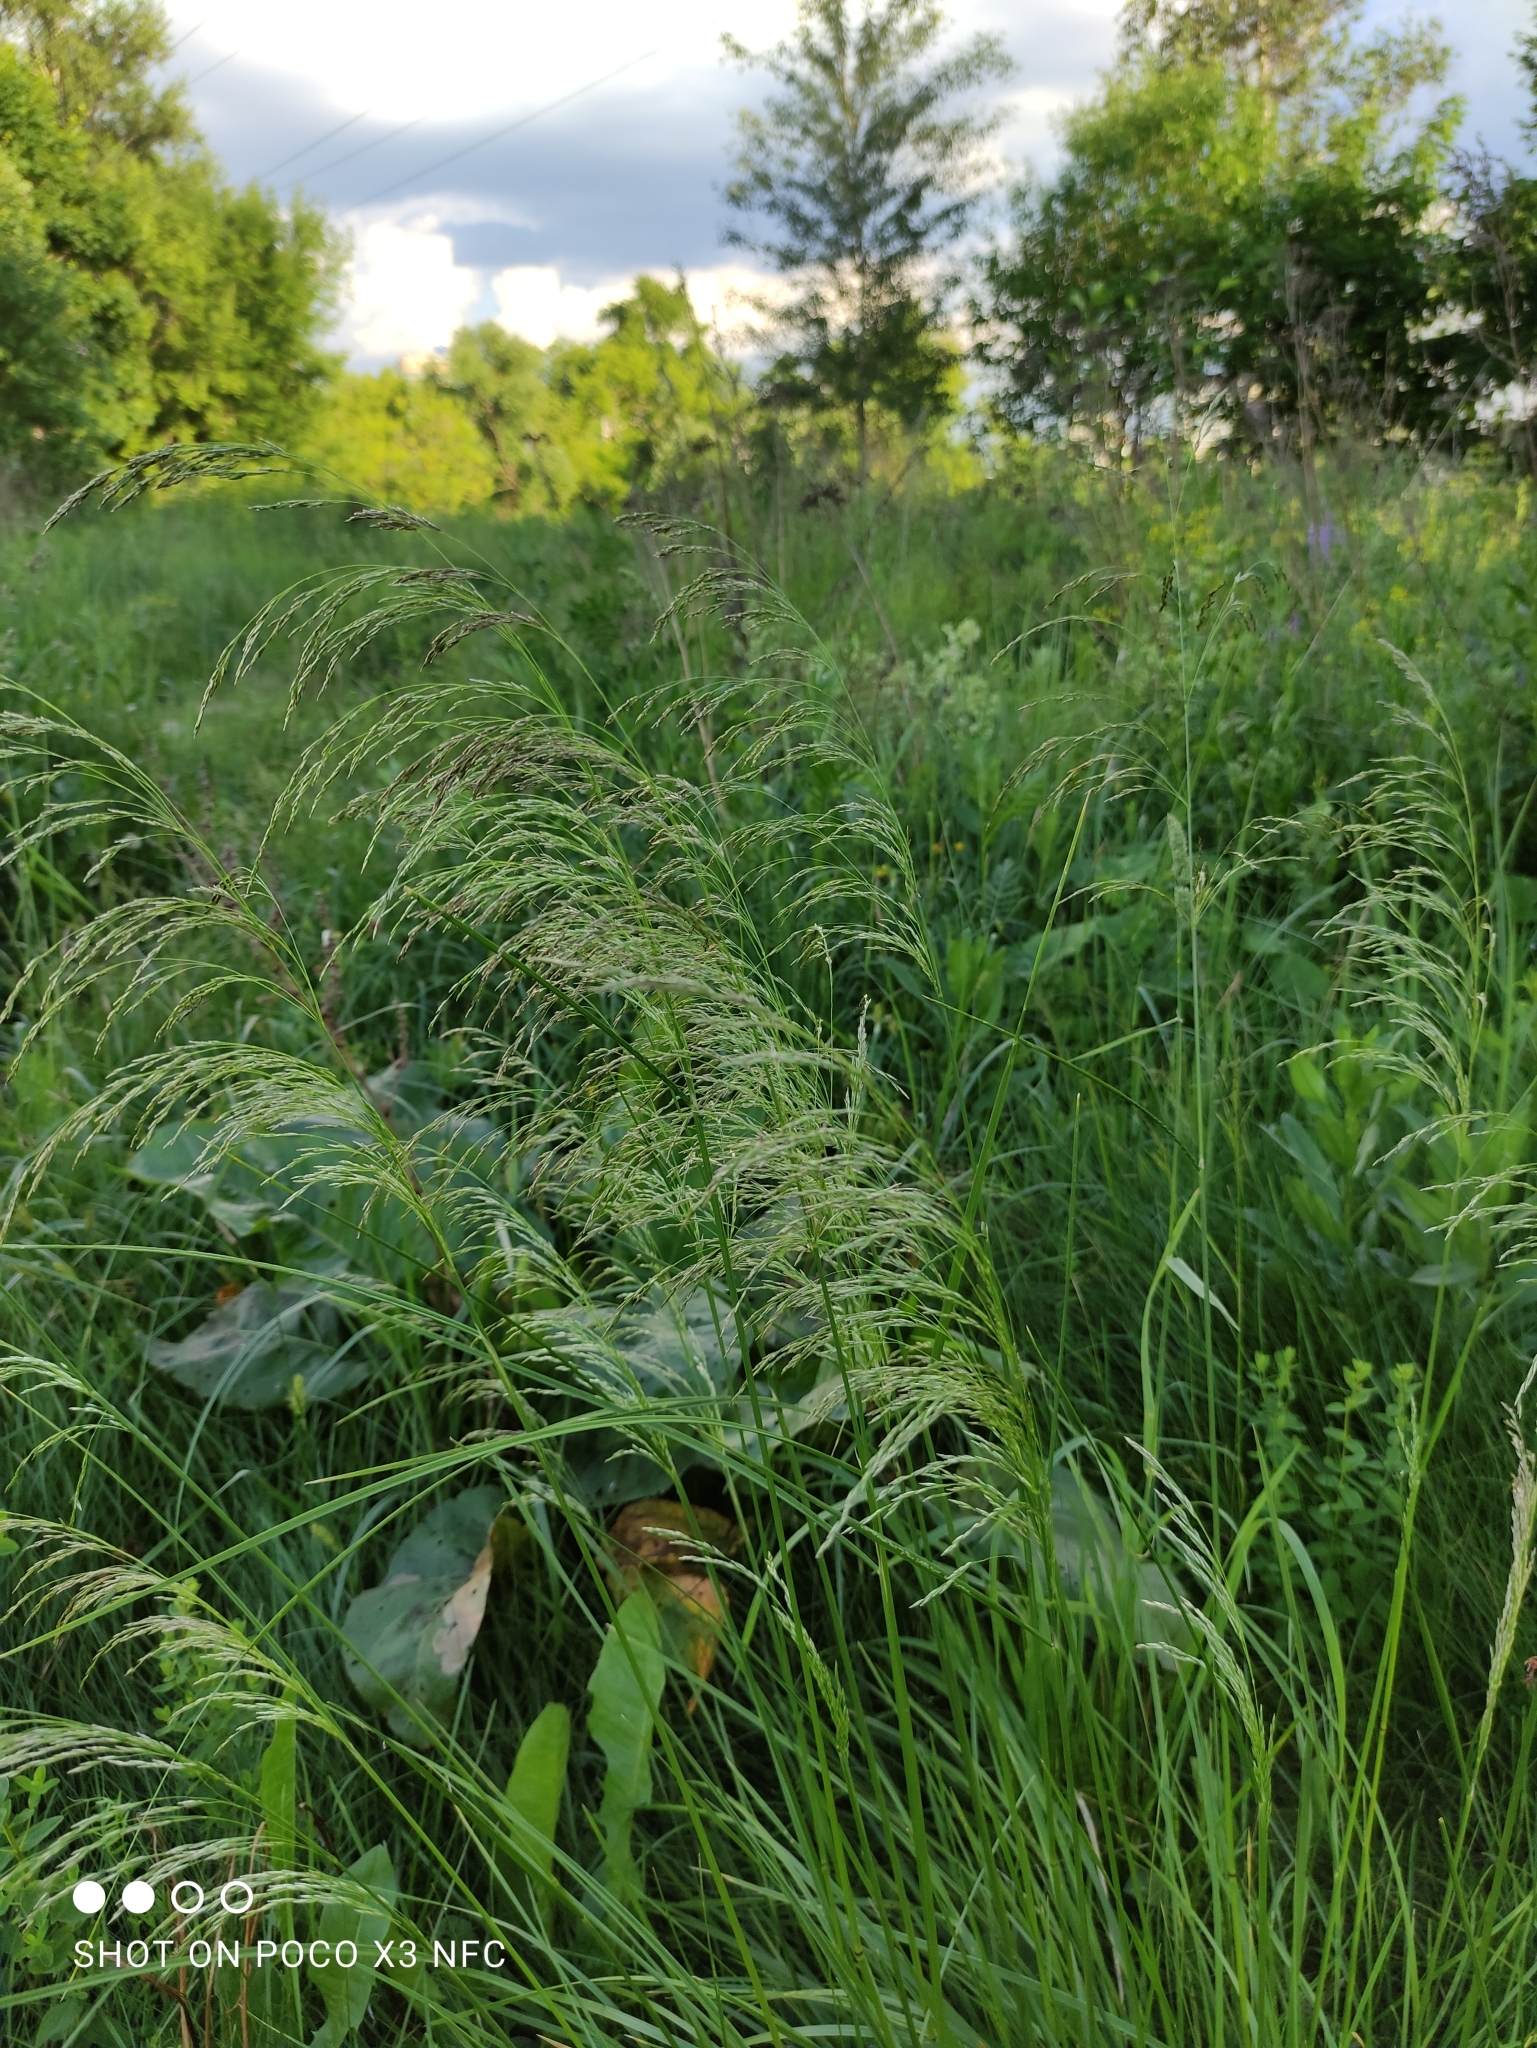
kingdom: Plantae
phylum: Tracheophyta
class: Liliopsida
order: Poales
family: Poaceae
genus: Deschampsia
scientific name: Deschampsia cespitosa
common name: Tufted hair-grass
